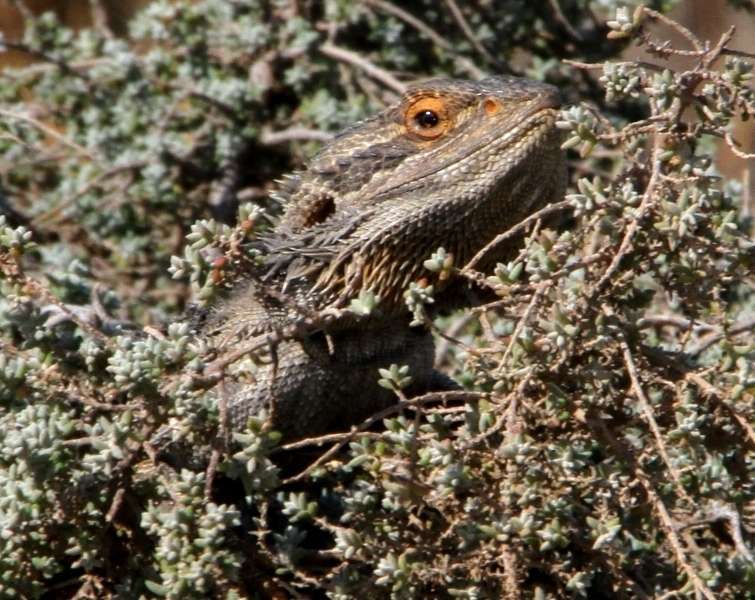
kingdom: Animalia
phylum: Chordata
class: Squamata
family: Agamidae
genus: Pogona
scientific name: Pogona vitticeps
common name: Central bearded dragon
